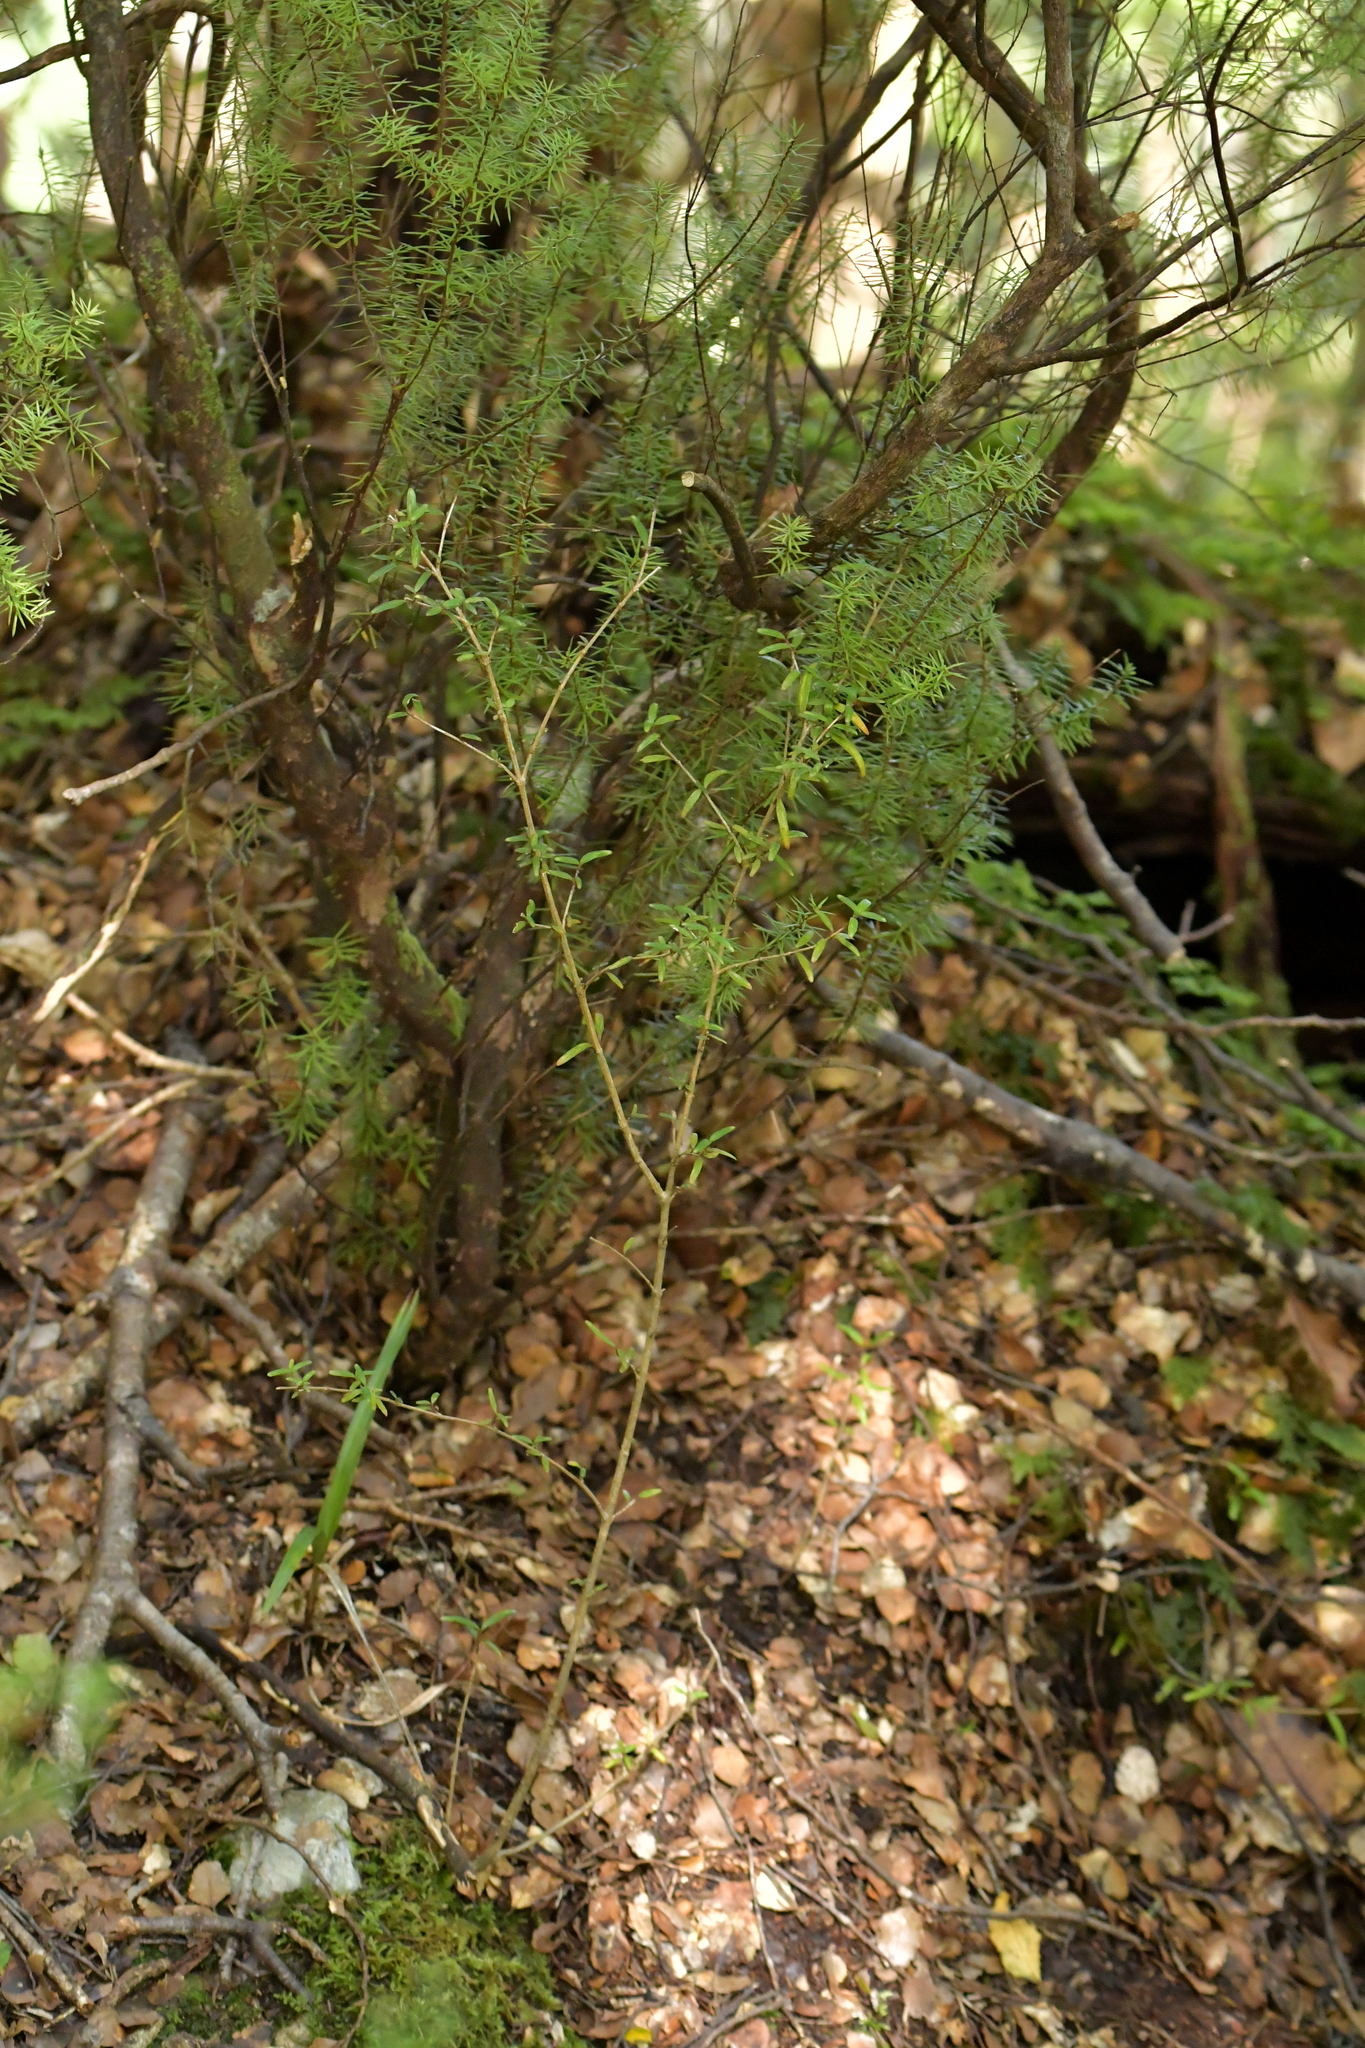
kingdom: Plantae
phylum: Tracheophyta
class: Magnoliopsida
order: Gentianales
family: Rubiaceae
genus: Coprosma
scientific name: Coprosma linariifolia
